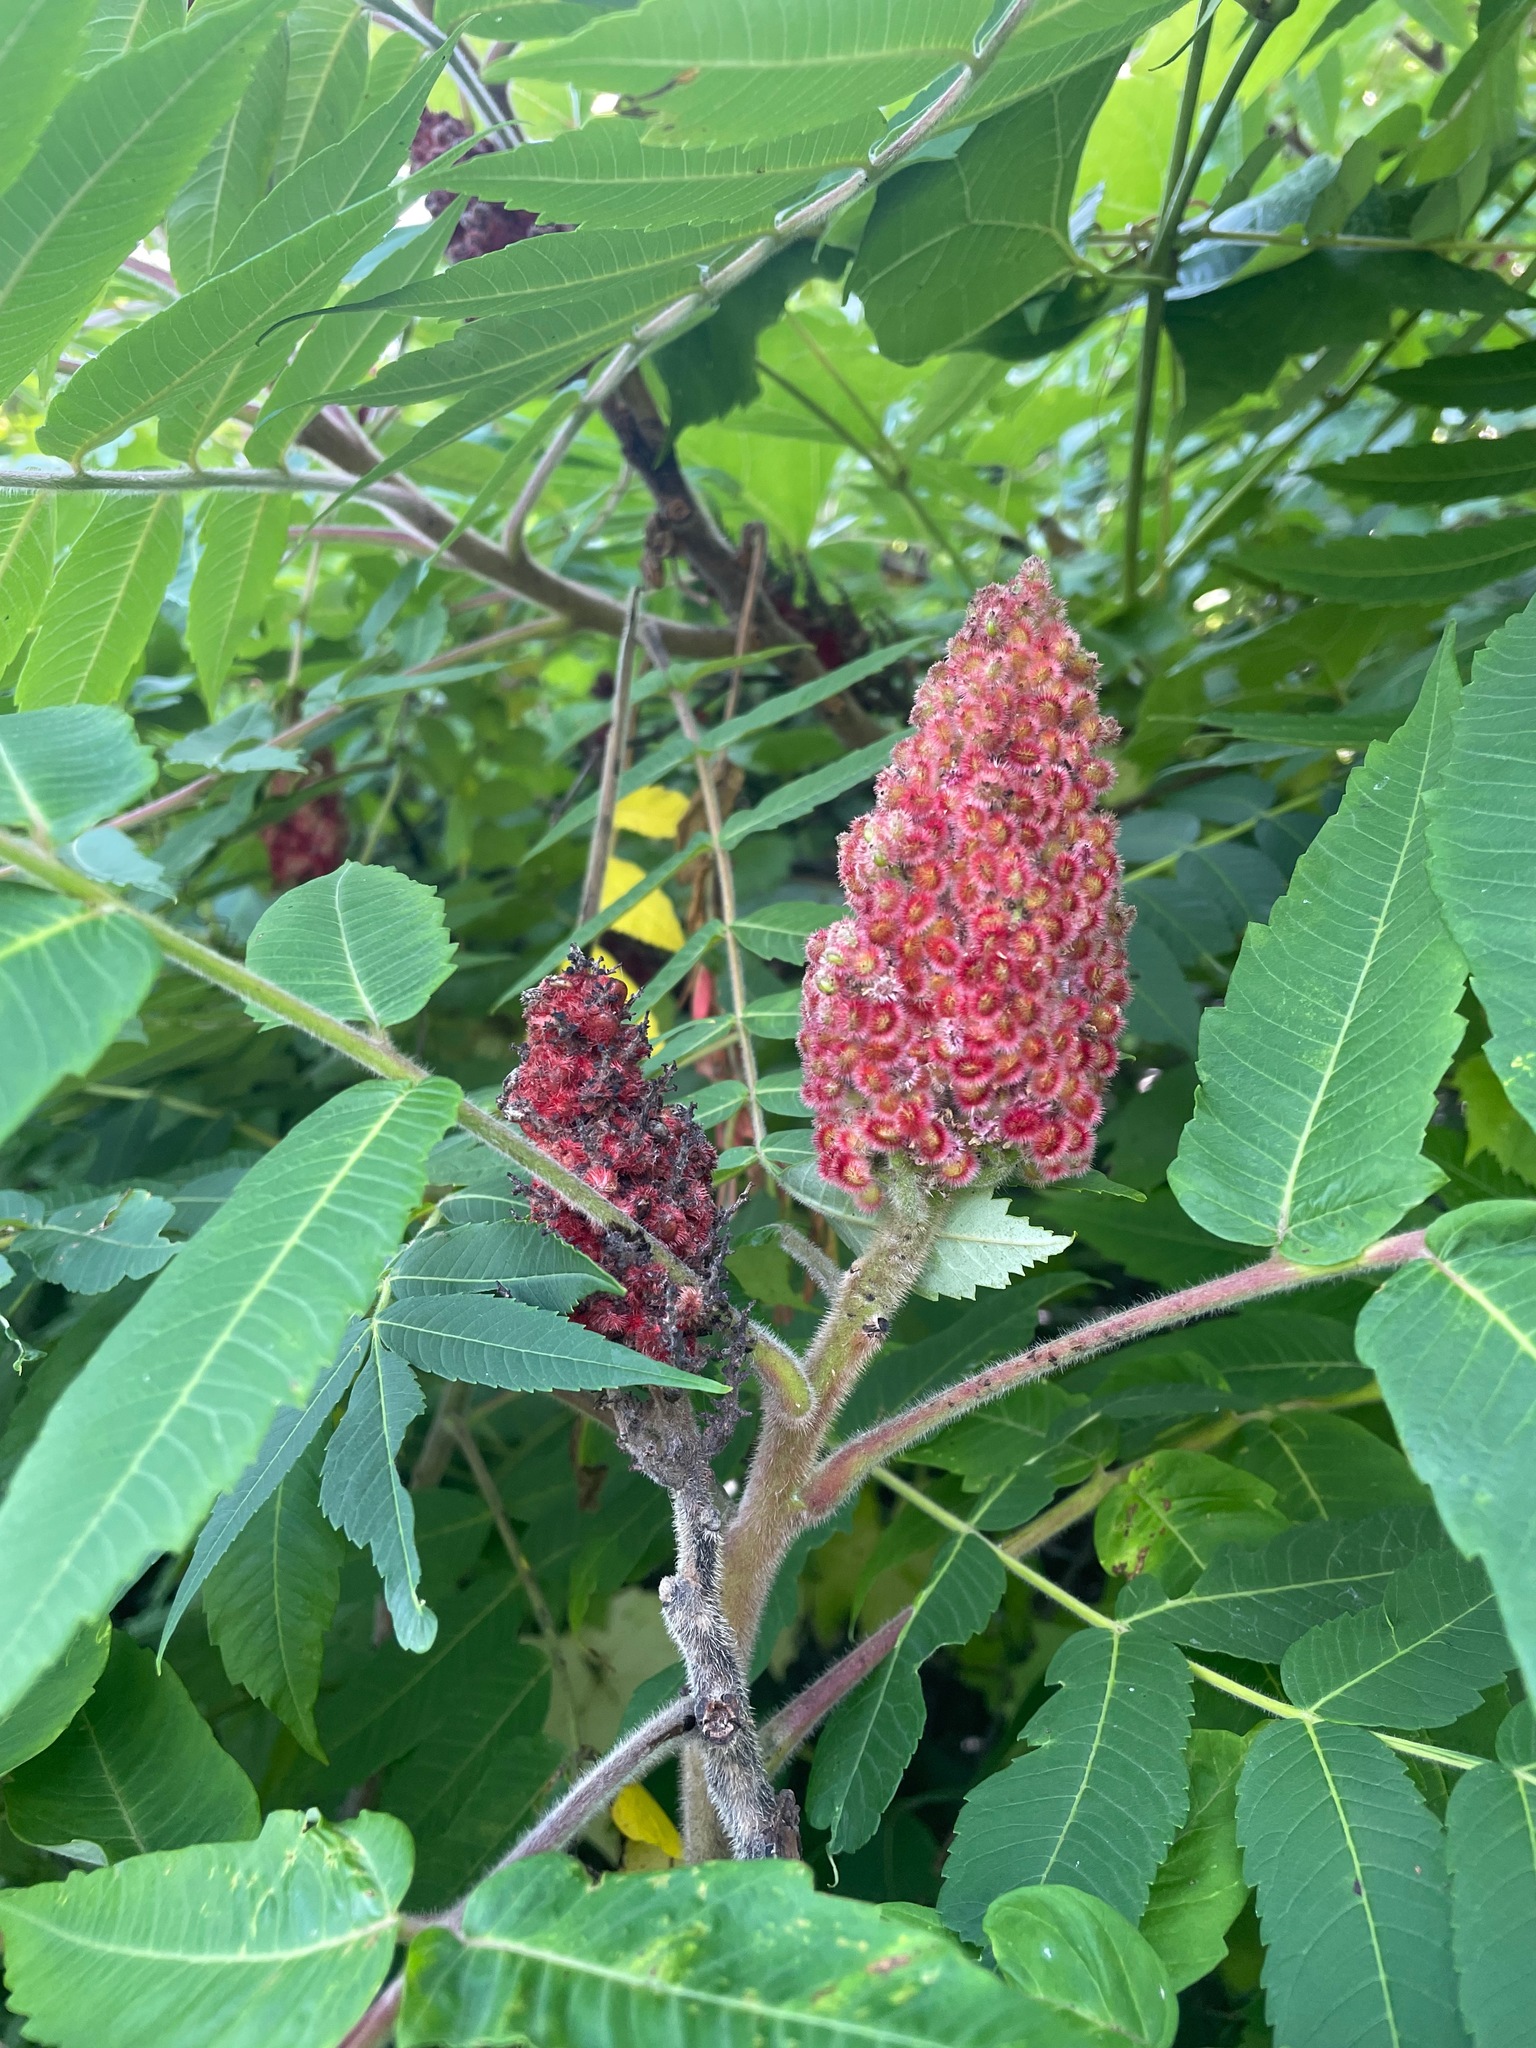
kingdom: Plantae
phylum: Tracheophyta
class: Magnoliopsida
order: Sapindales
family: Anacardiaceae
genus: Rhus
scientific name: Rhus typhina
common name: Staghorn sumac
